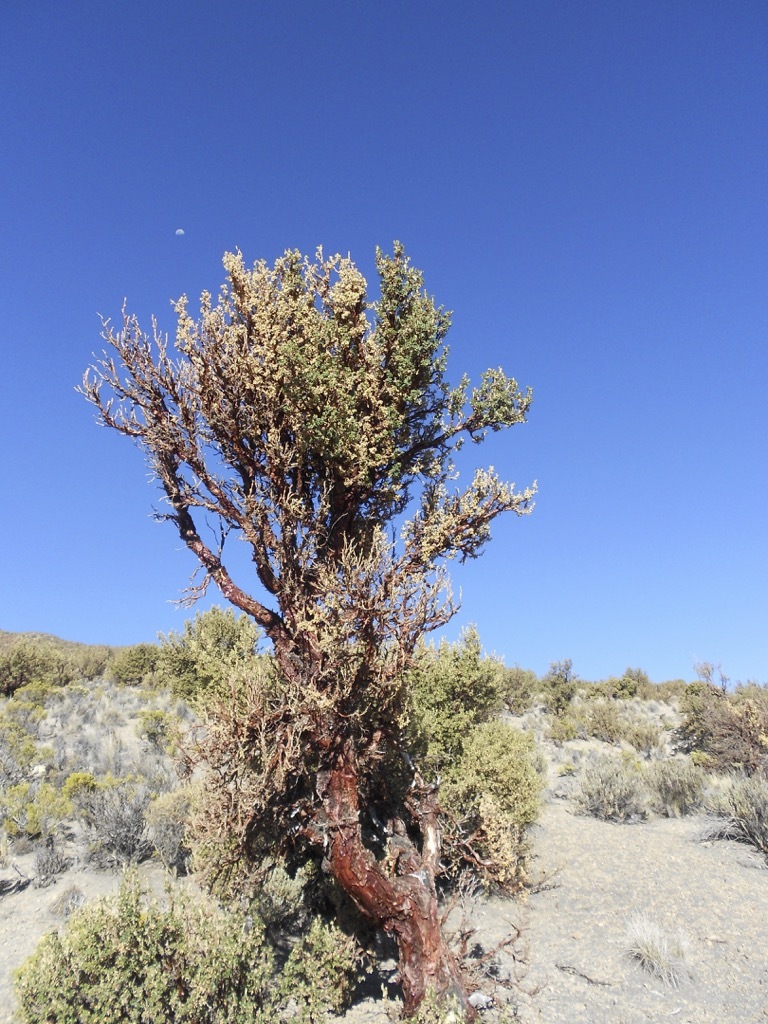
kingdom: Plantae
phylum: Tracheophyta
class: Magnoliopsida
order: Rosales
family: Rosaceae
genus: Polylepis
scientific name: Polylepis tarapacana
